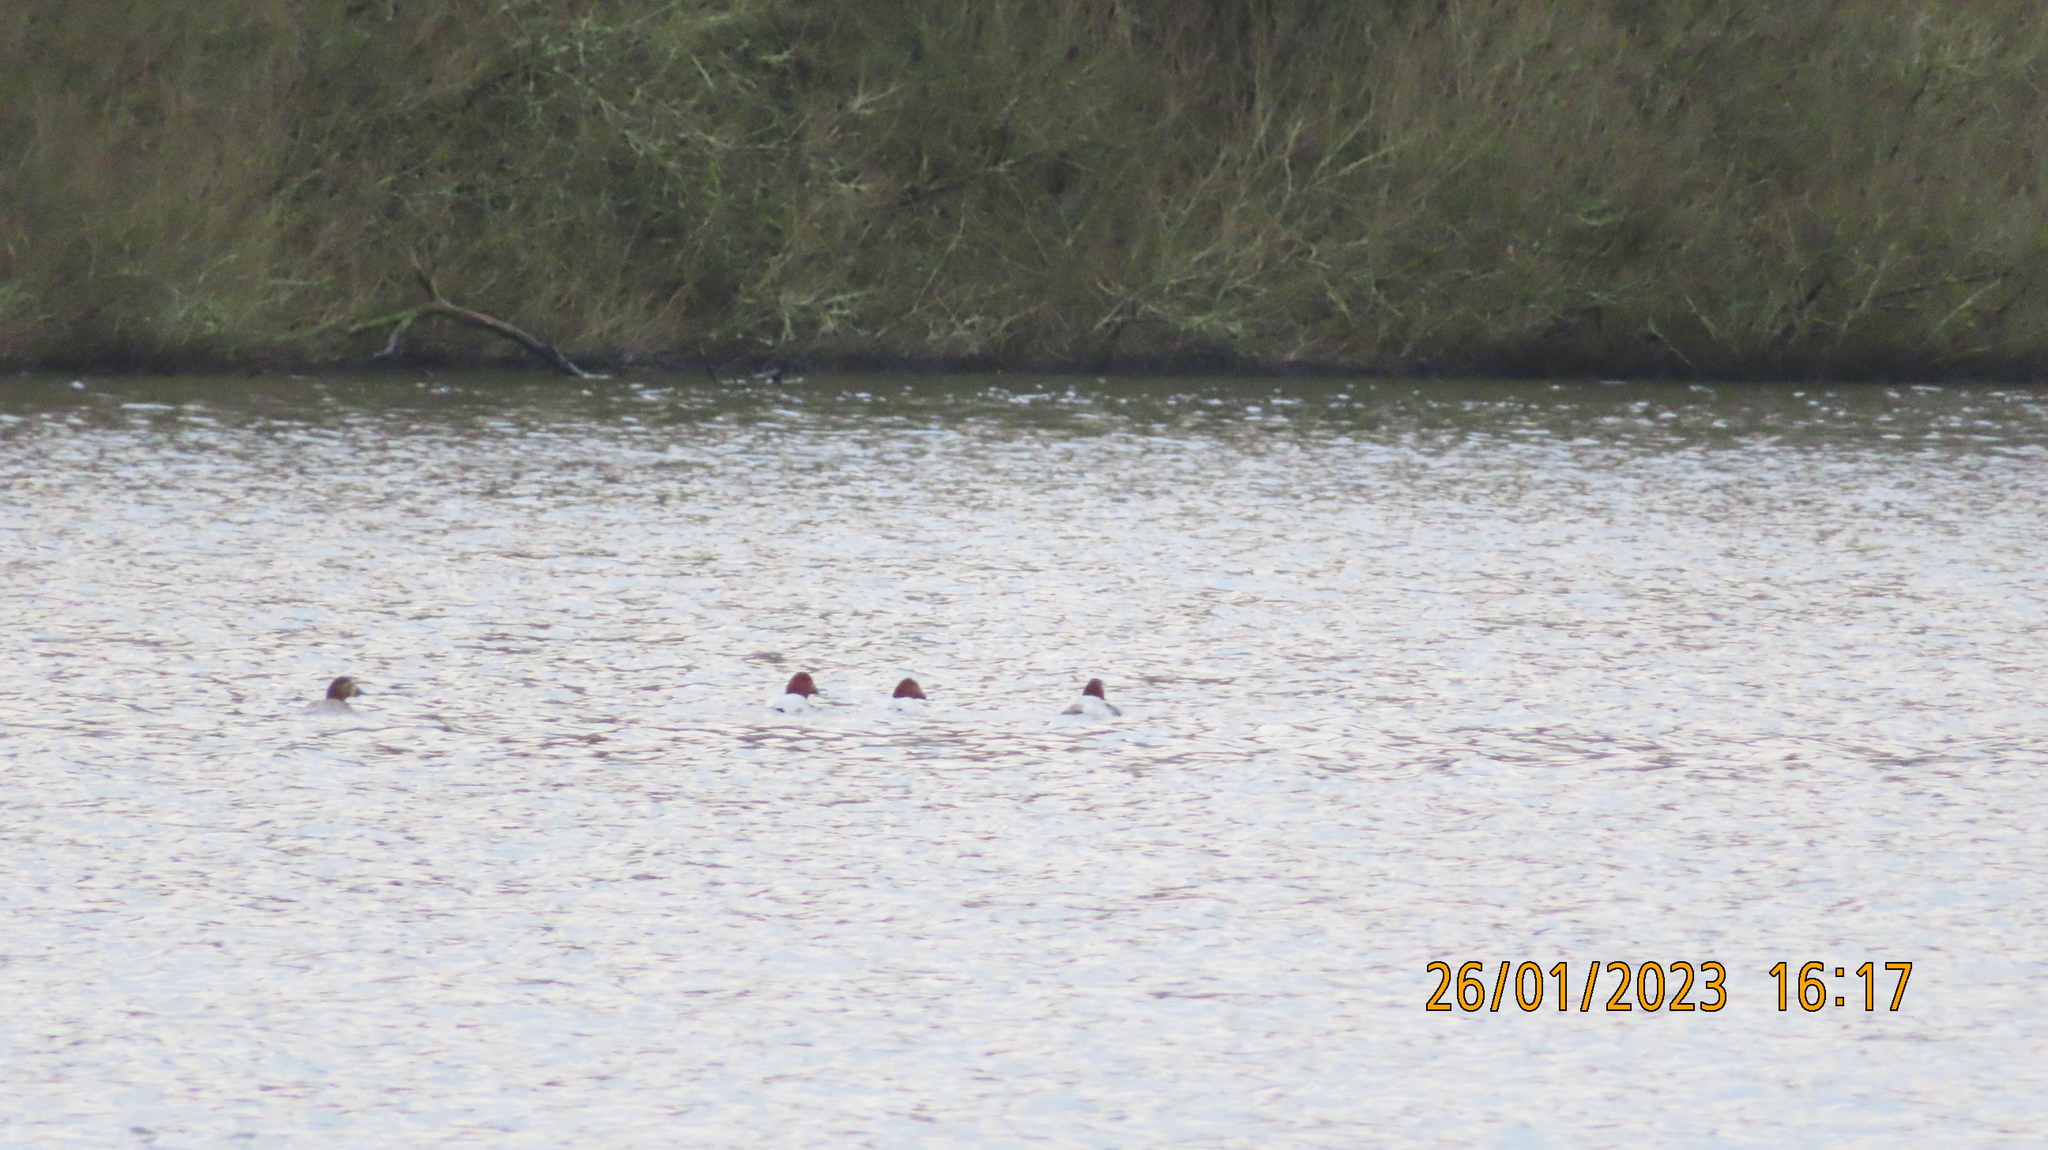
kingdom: Animalia
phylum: Chordata
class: Aves
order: Anseriformes
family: Anatidae
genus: Aythya
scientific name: Aythya ferina
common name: Common pochard
